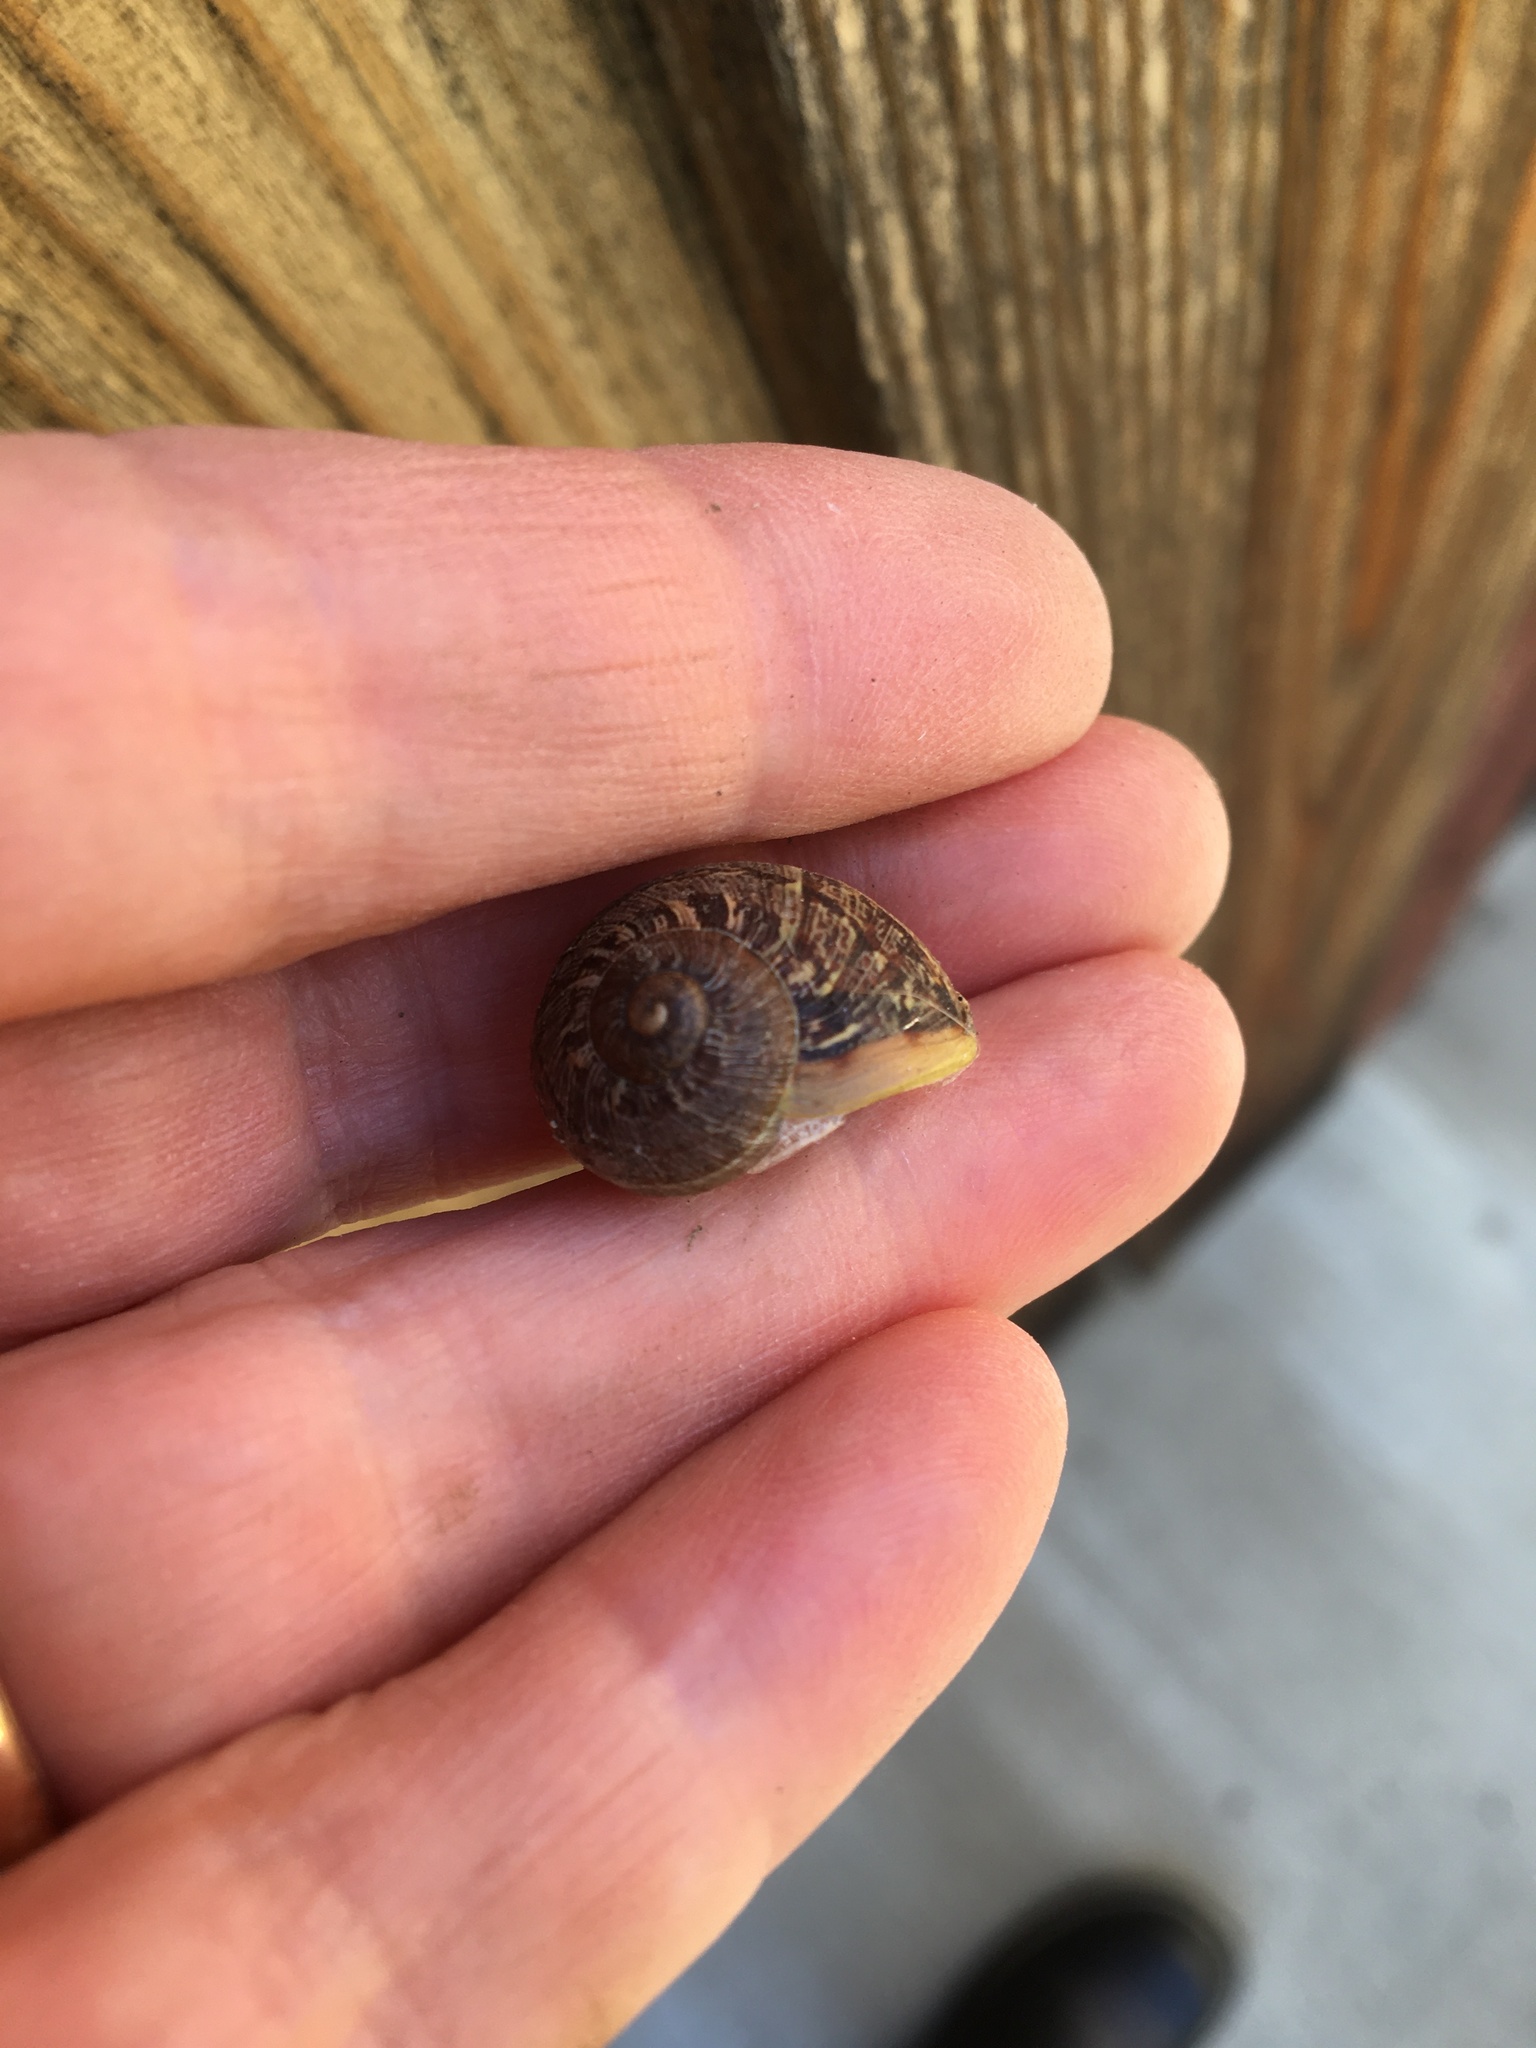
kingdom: Animalia
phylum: Mollusca
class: Gastropoda
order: Stylommatophora
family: Helicidae
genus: Cornu
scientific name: Cornu aspersum
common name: Brown garden snail
